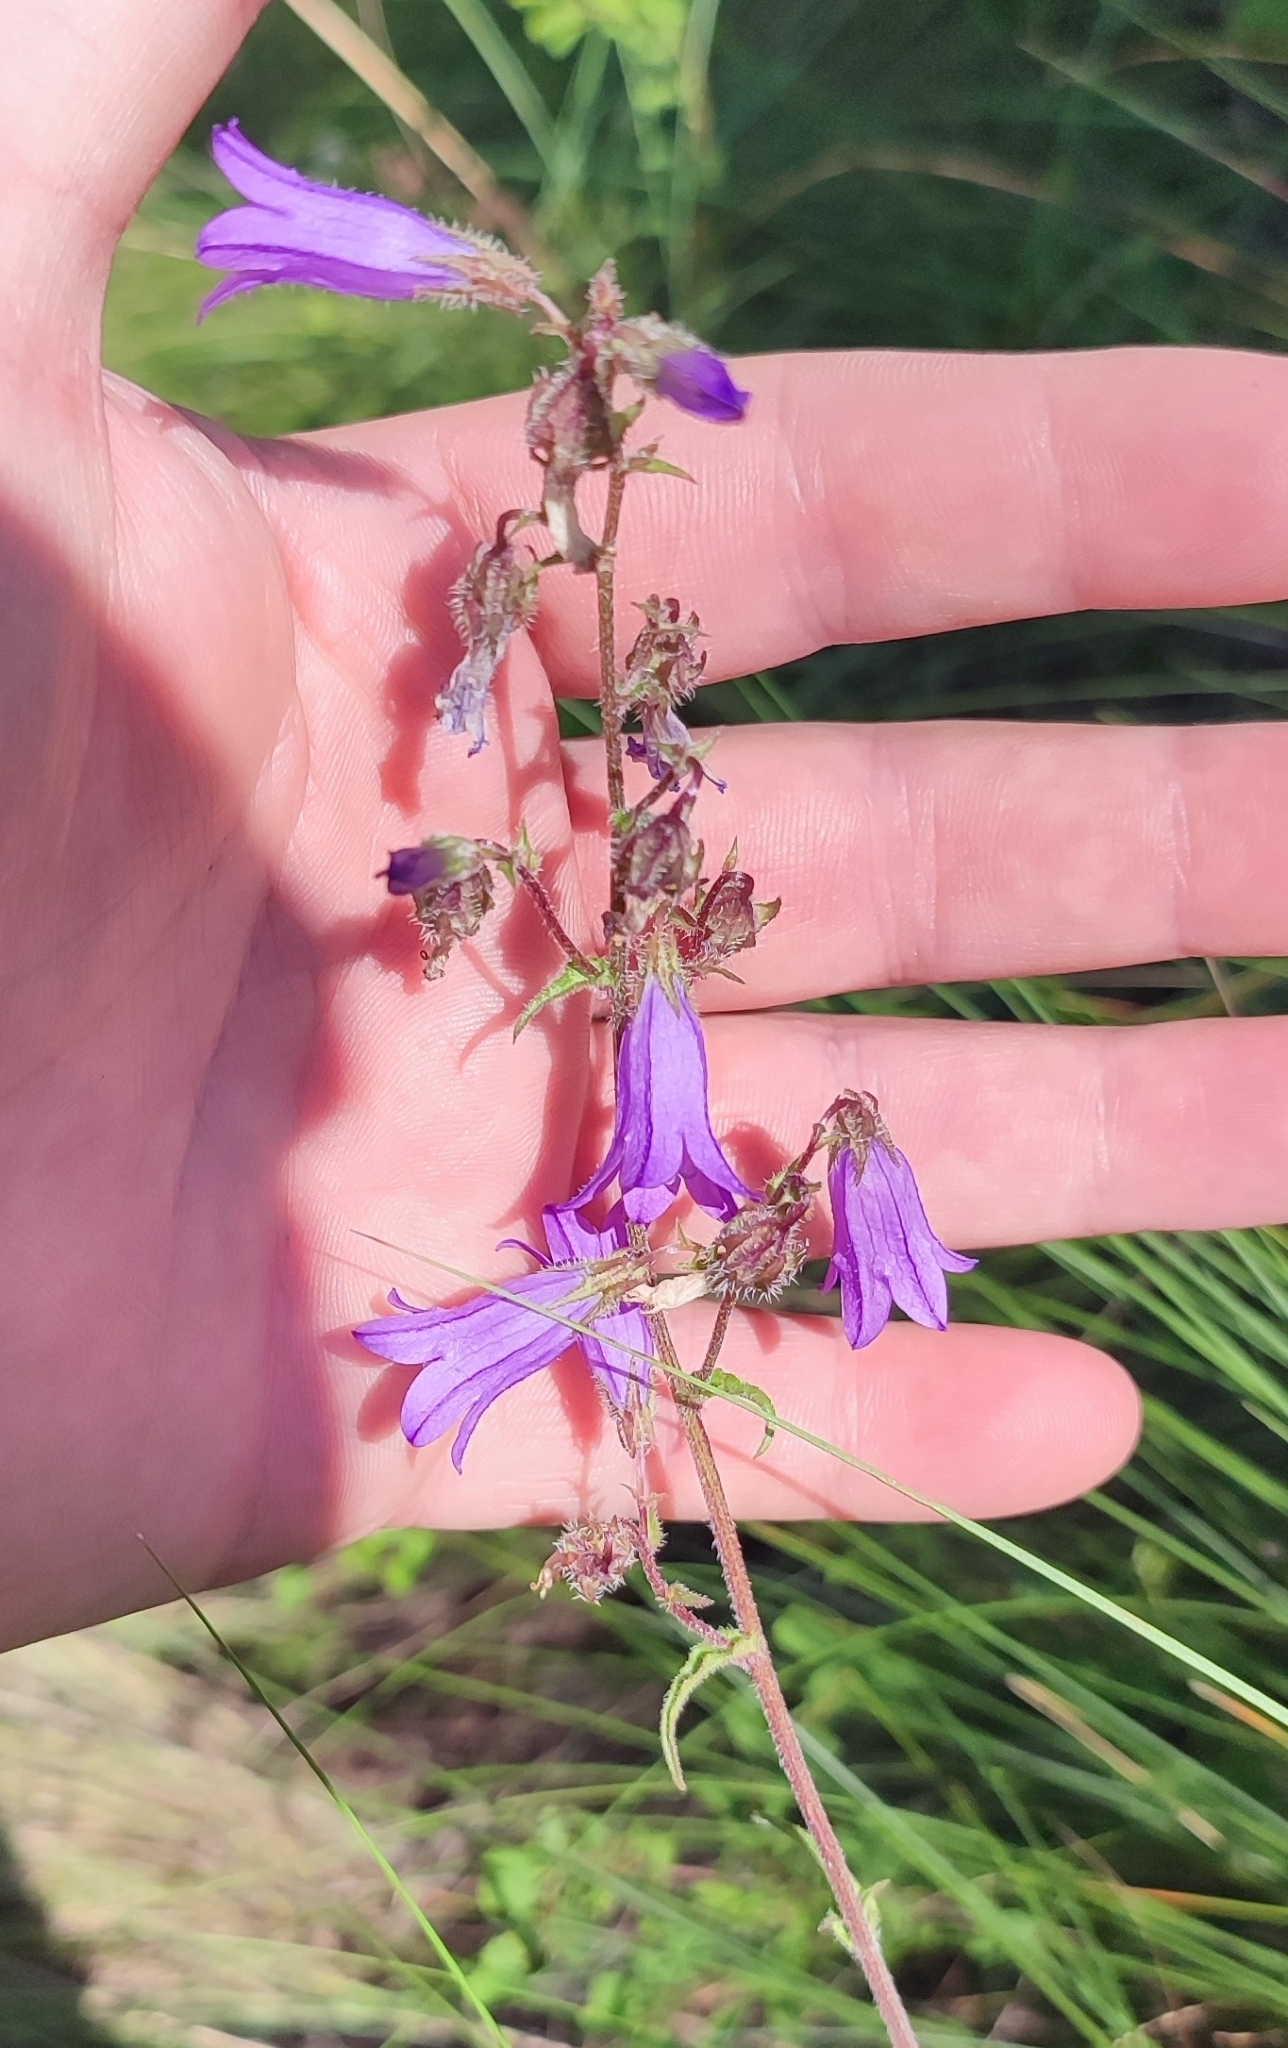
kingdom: Plantae
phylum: Tracheophyta
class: Magnoliopsida
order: Asterales
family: Campanulaceae
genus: Campanula
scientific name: Campanula sibirica
